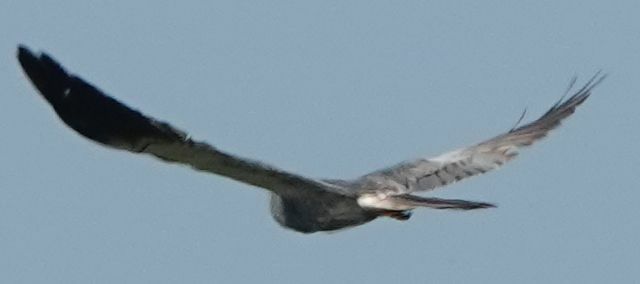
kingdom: Animalia
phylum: Chordata
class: Aves
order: Accipitriformes
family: Accipitridae
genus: Circus
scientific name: Circus pygargus
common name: Montagu's harrier
